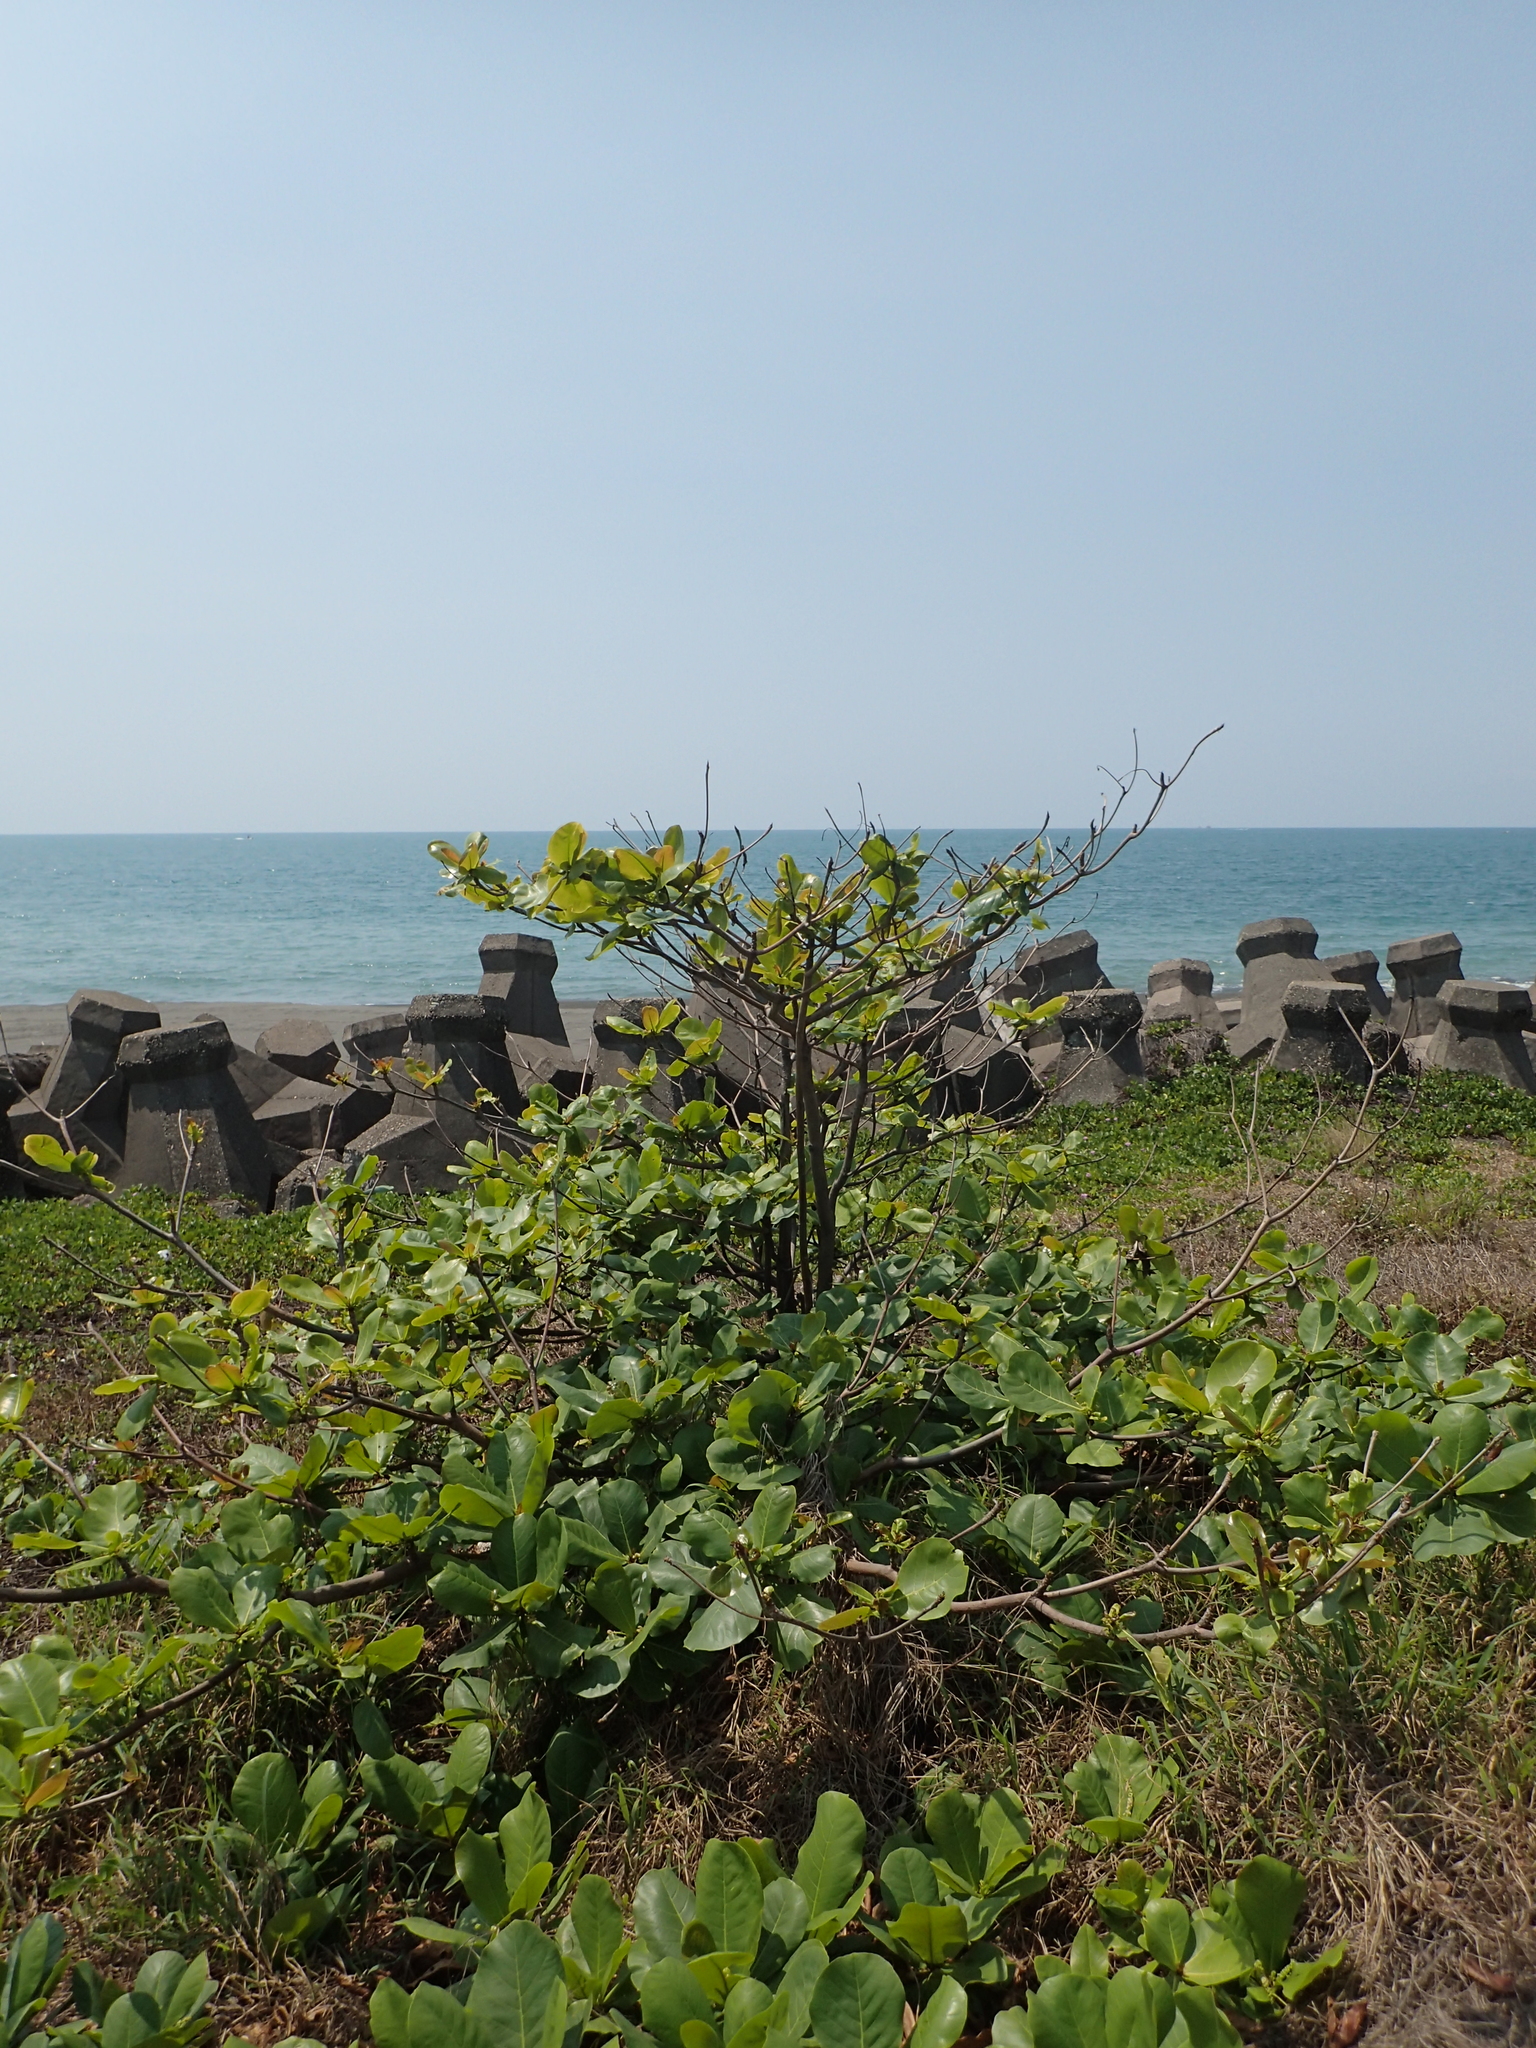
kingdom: Plantae
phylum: Tracheophyta
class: Magnoliopsida
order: Myrtales
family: Combretaceae
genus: Terminalia
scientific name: Terminalia catappa
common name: Tropical almond
